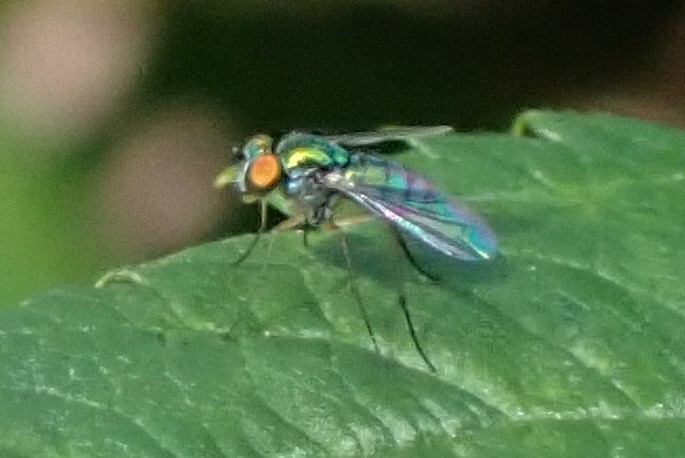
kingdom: Animalia
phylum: Arthropoda
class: Insecta
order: Diptera
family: Dolichopodidae
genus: Condylostylus
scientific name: Condylostylus
